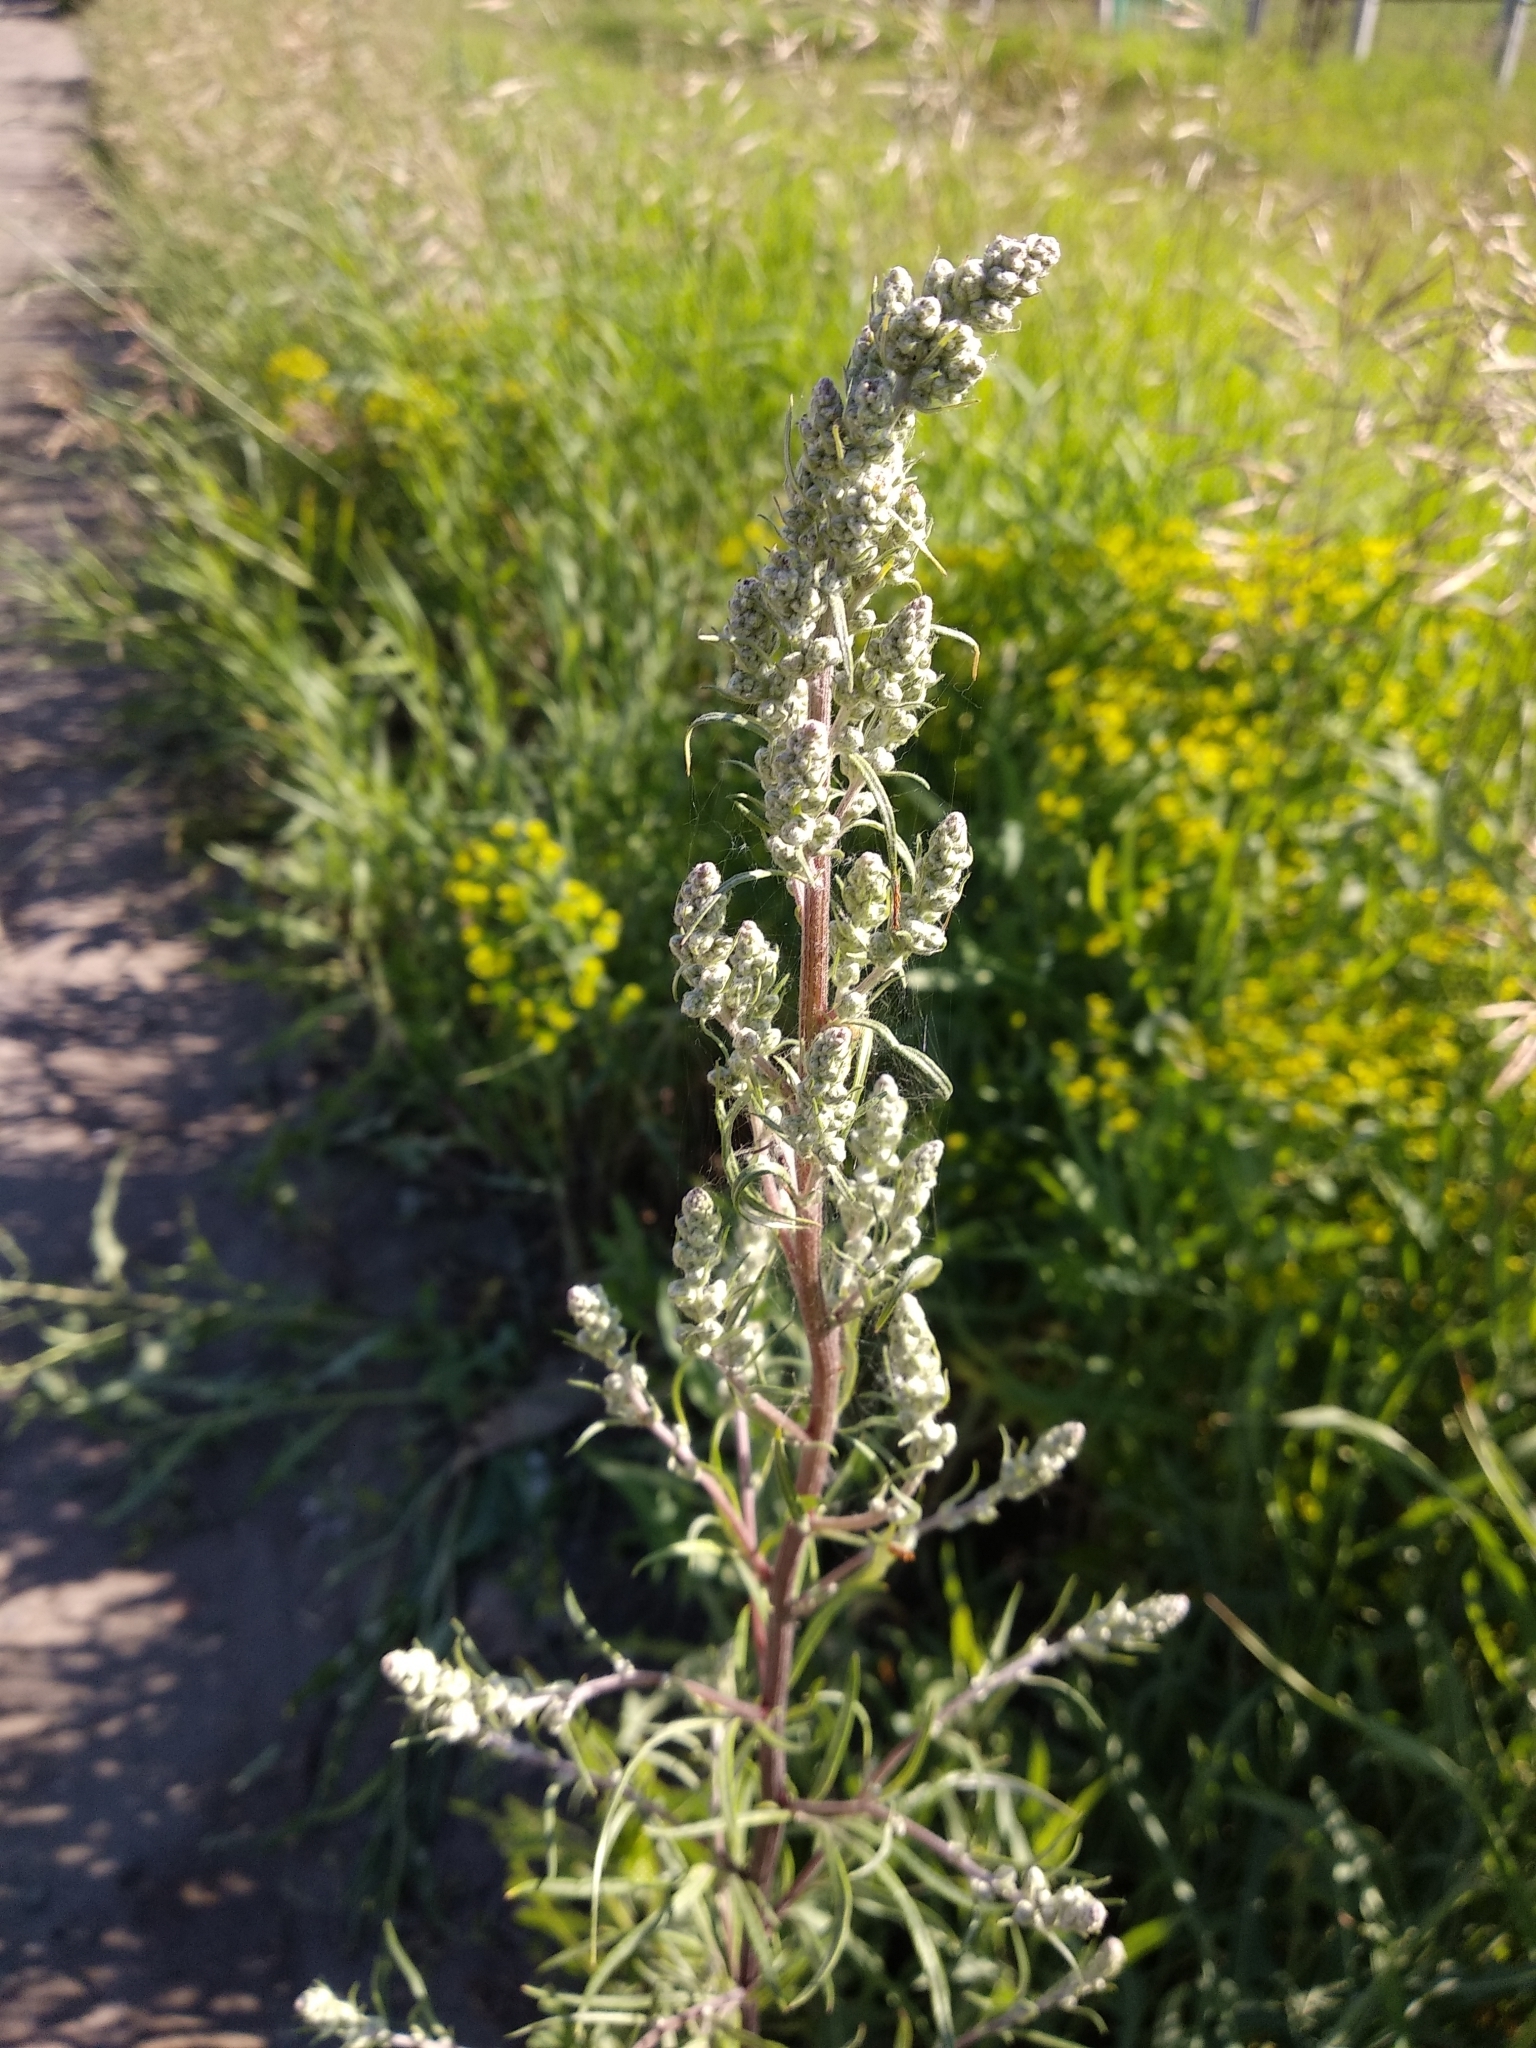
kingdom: Plantae
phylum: Tracheophyta
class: Magnoliopsida
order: Asterales
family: Asteraceae
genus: Artemisia
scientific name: Artemisia vulgaris
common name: Mugwort
